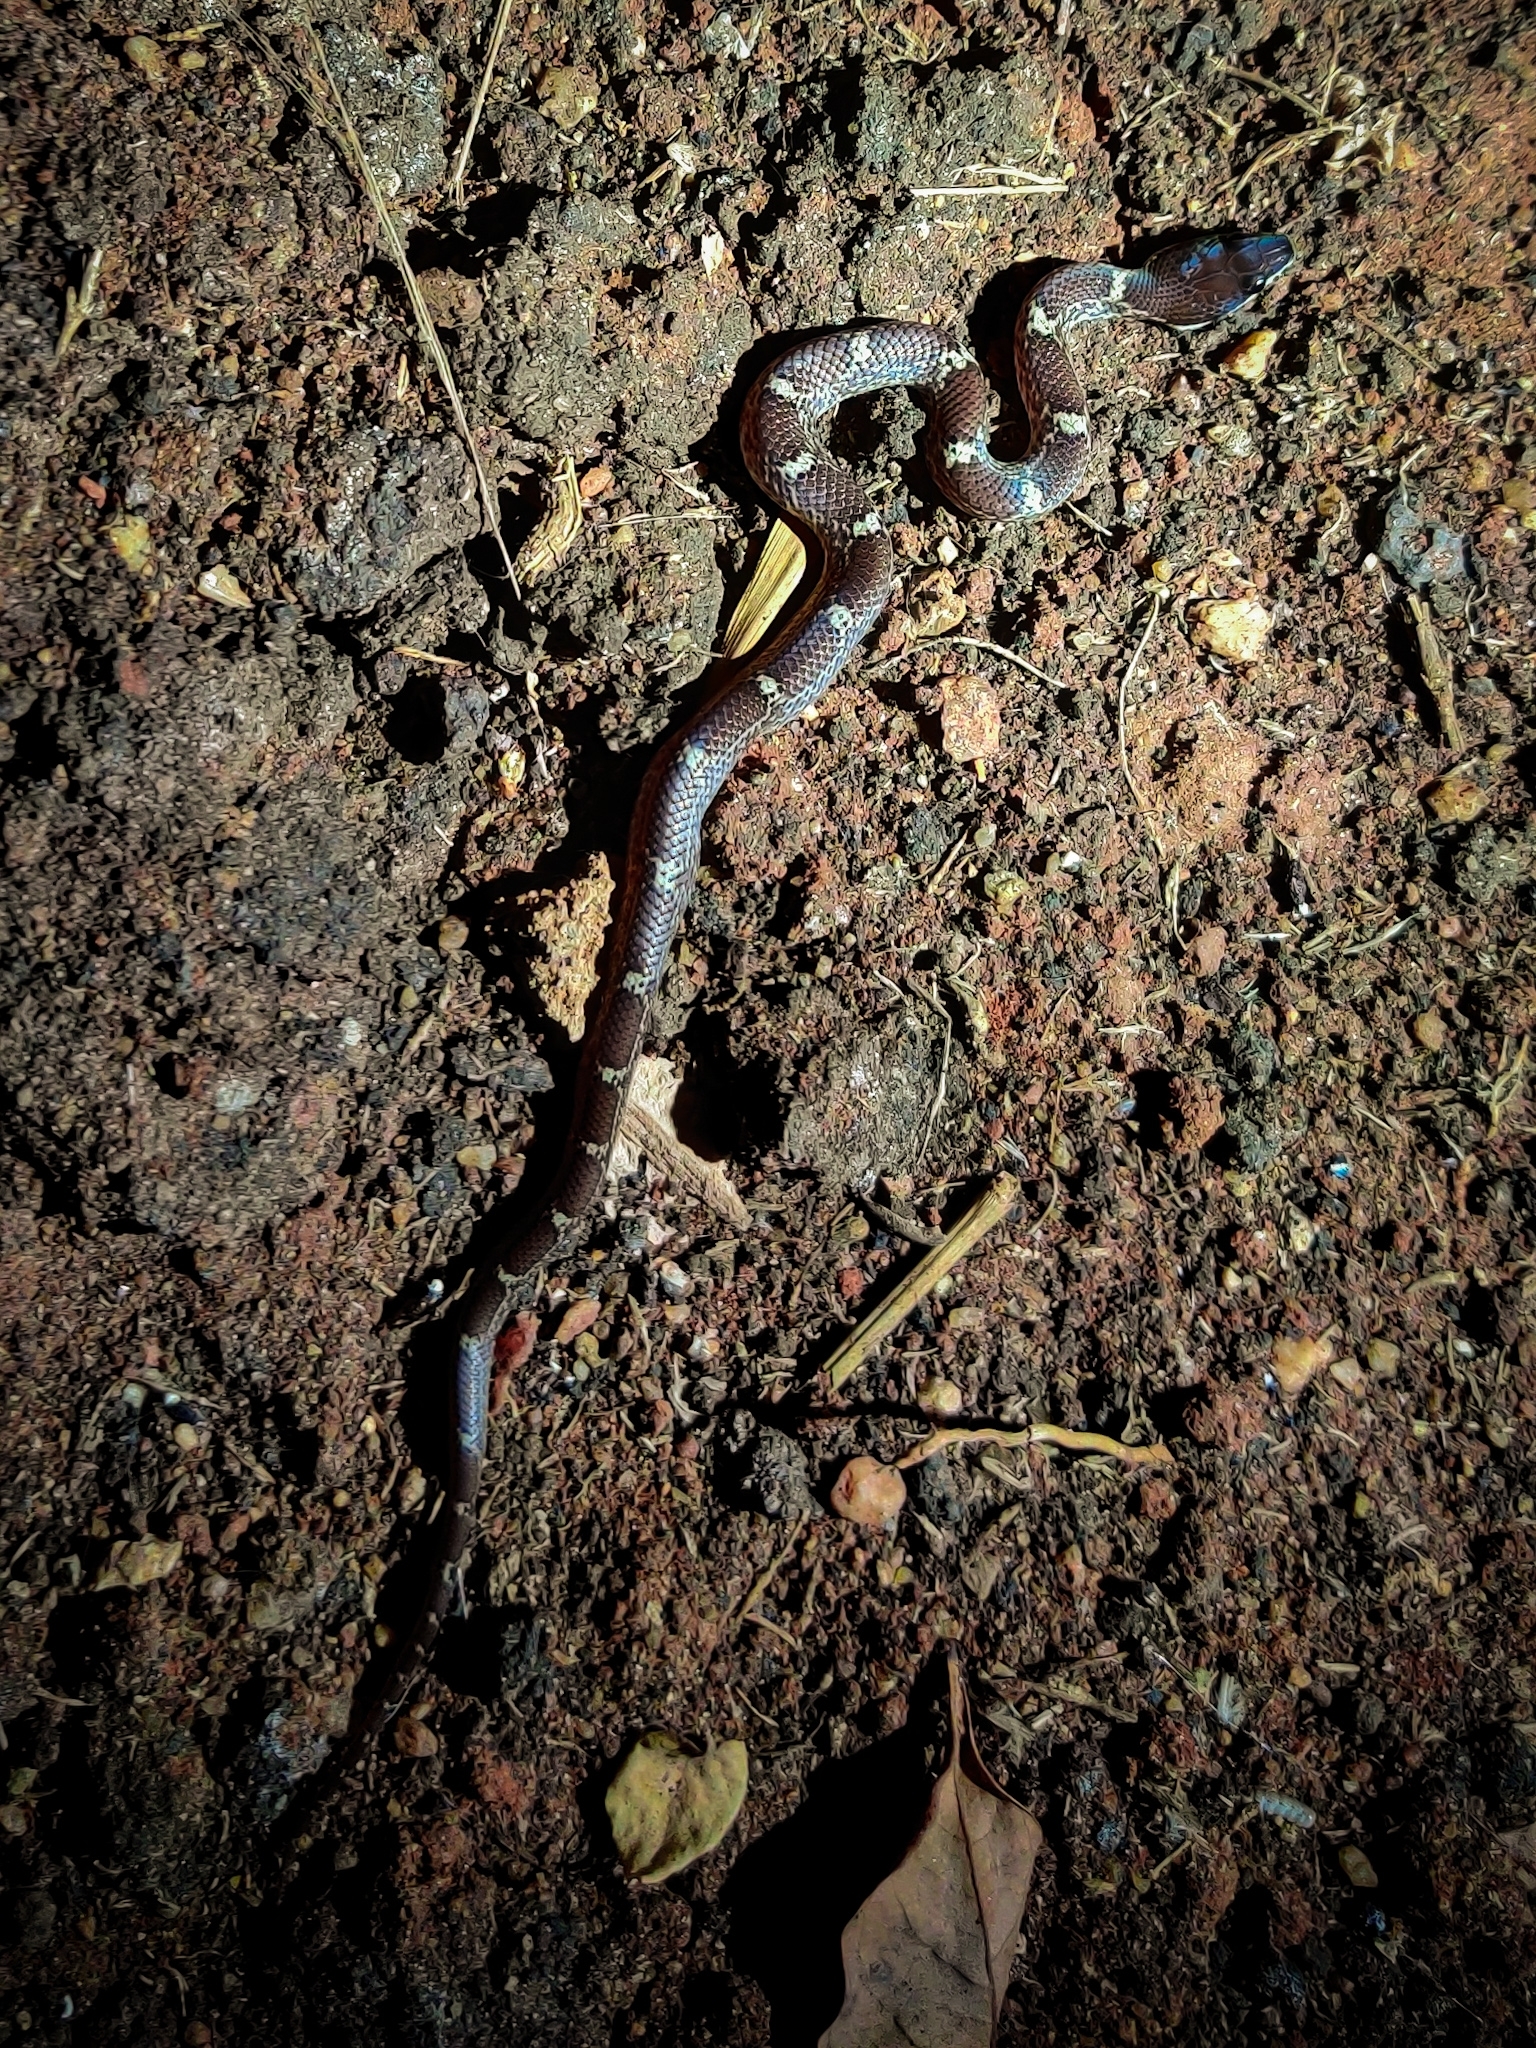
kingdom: Animalia
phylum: Chordata
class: Squamata
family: Colubridae
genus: Lycodon
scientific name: Lycodon fasciolatus
